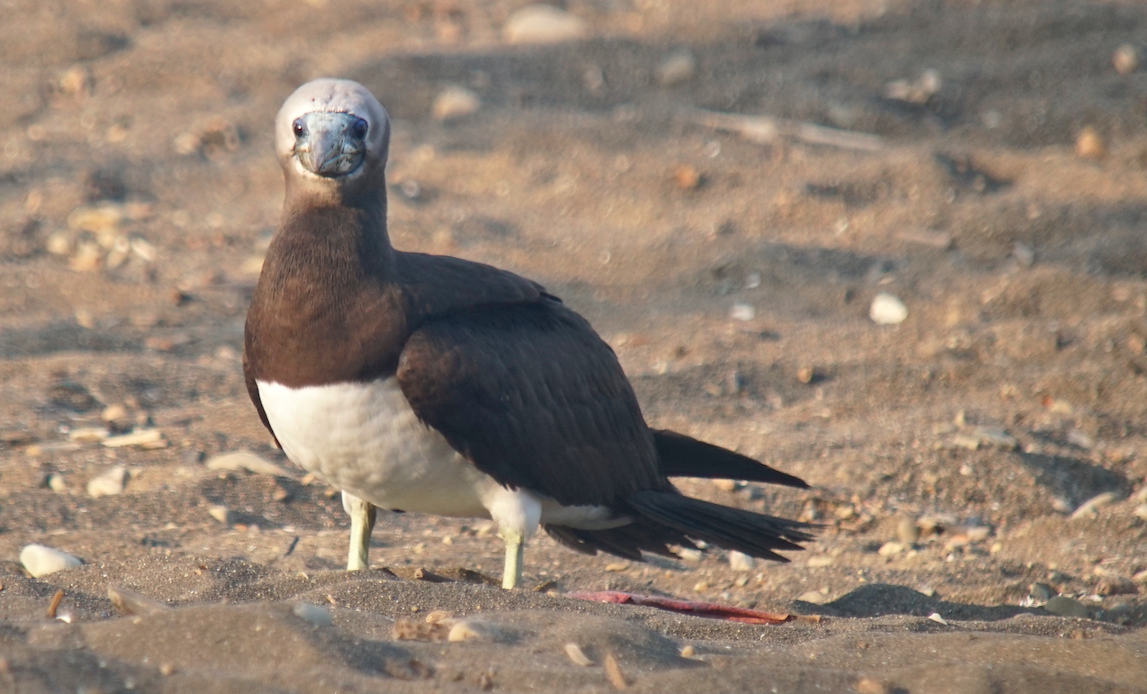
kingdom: Animalia
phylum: Chordata
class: Aves
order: Suliformes
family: Sulidae
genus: Sula
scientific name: Sula leucogaster
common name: Brown booby
